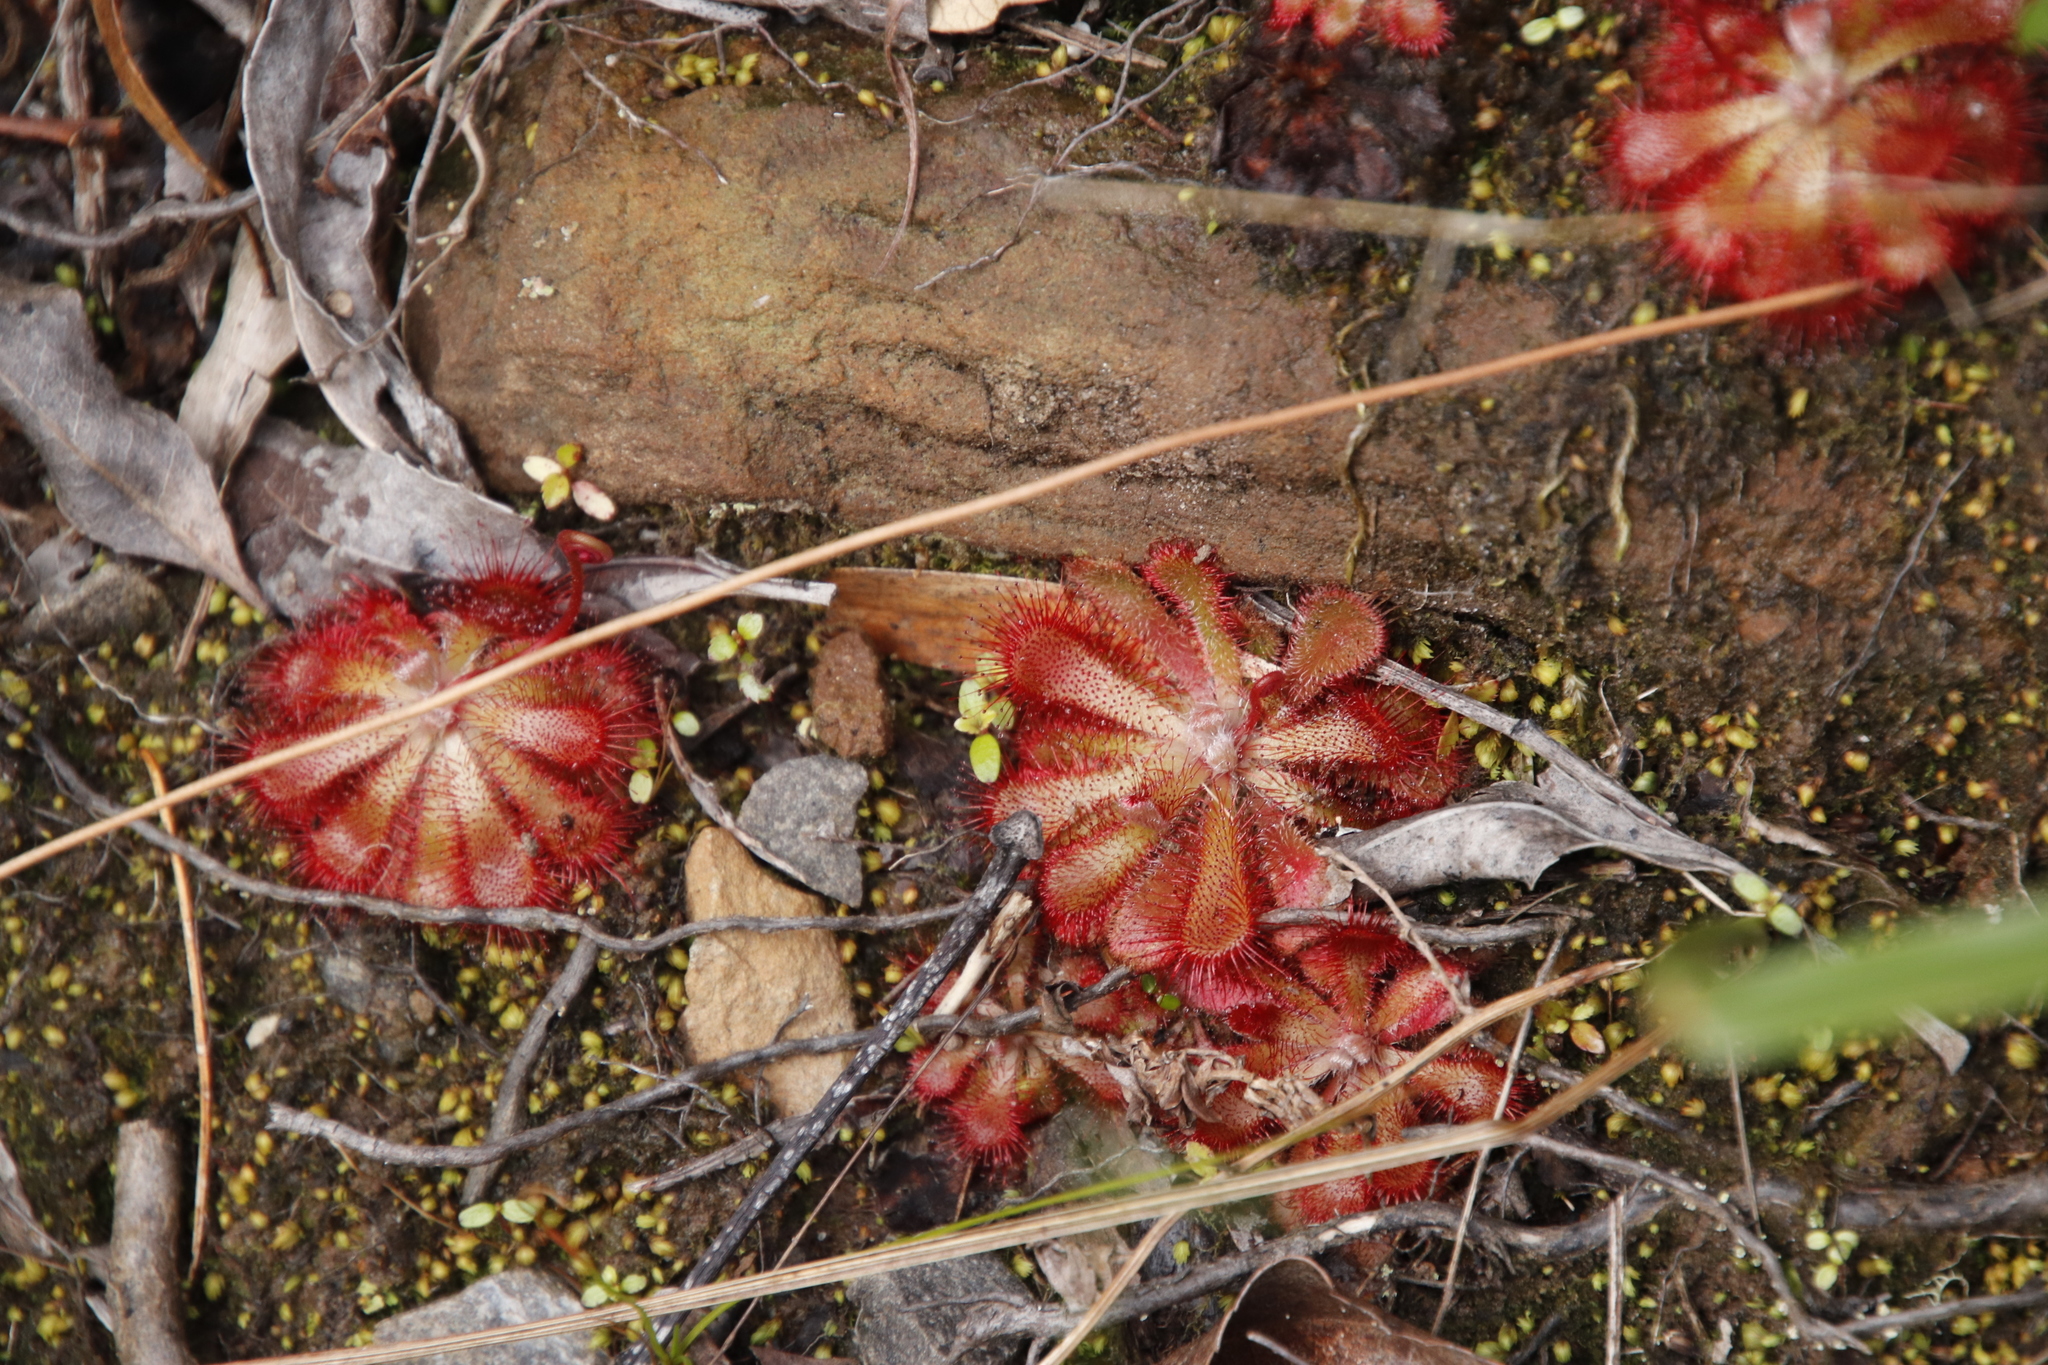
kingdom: Plantae
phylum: Tracheophyta
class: Magnoliopsida
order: Caryophyllales
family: Droseraceae
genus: Drosera
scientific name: Drosera aliciae
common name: Alice sundew
